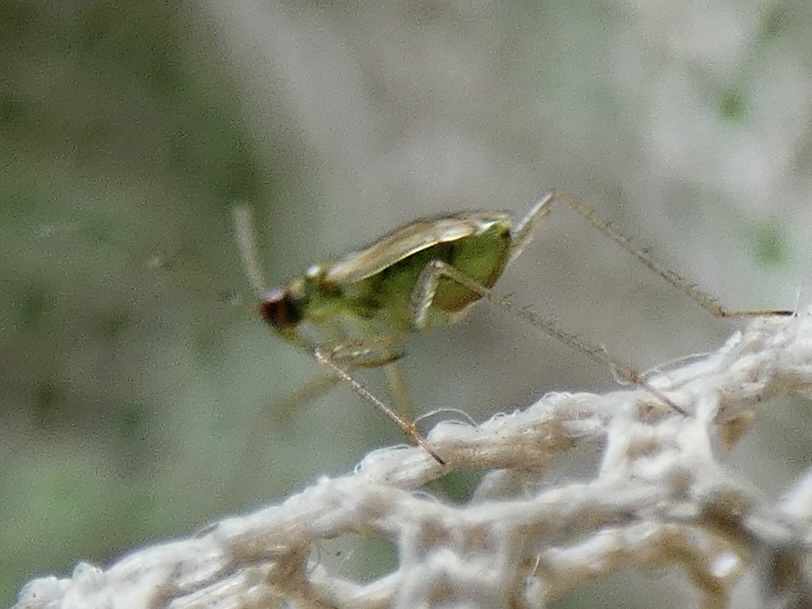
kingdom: Animalia
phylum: Arthropoda
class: Insecta
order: Hemiptera
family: Miridae
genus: Dicyphus
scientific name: Dicyphus stachydis
